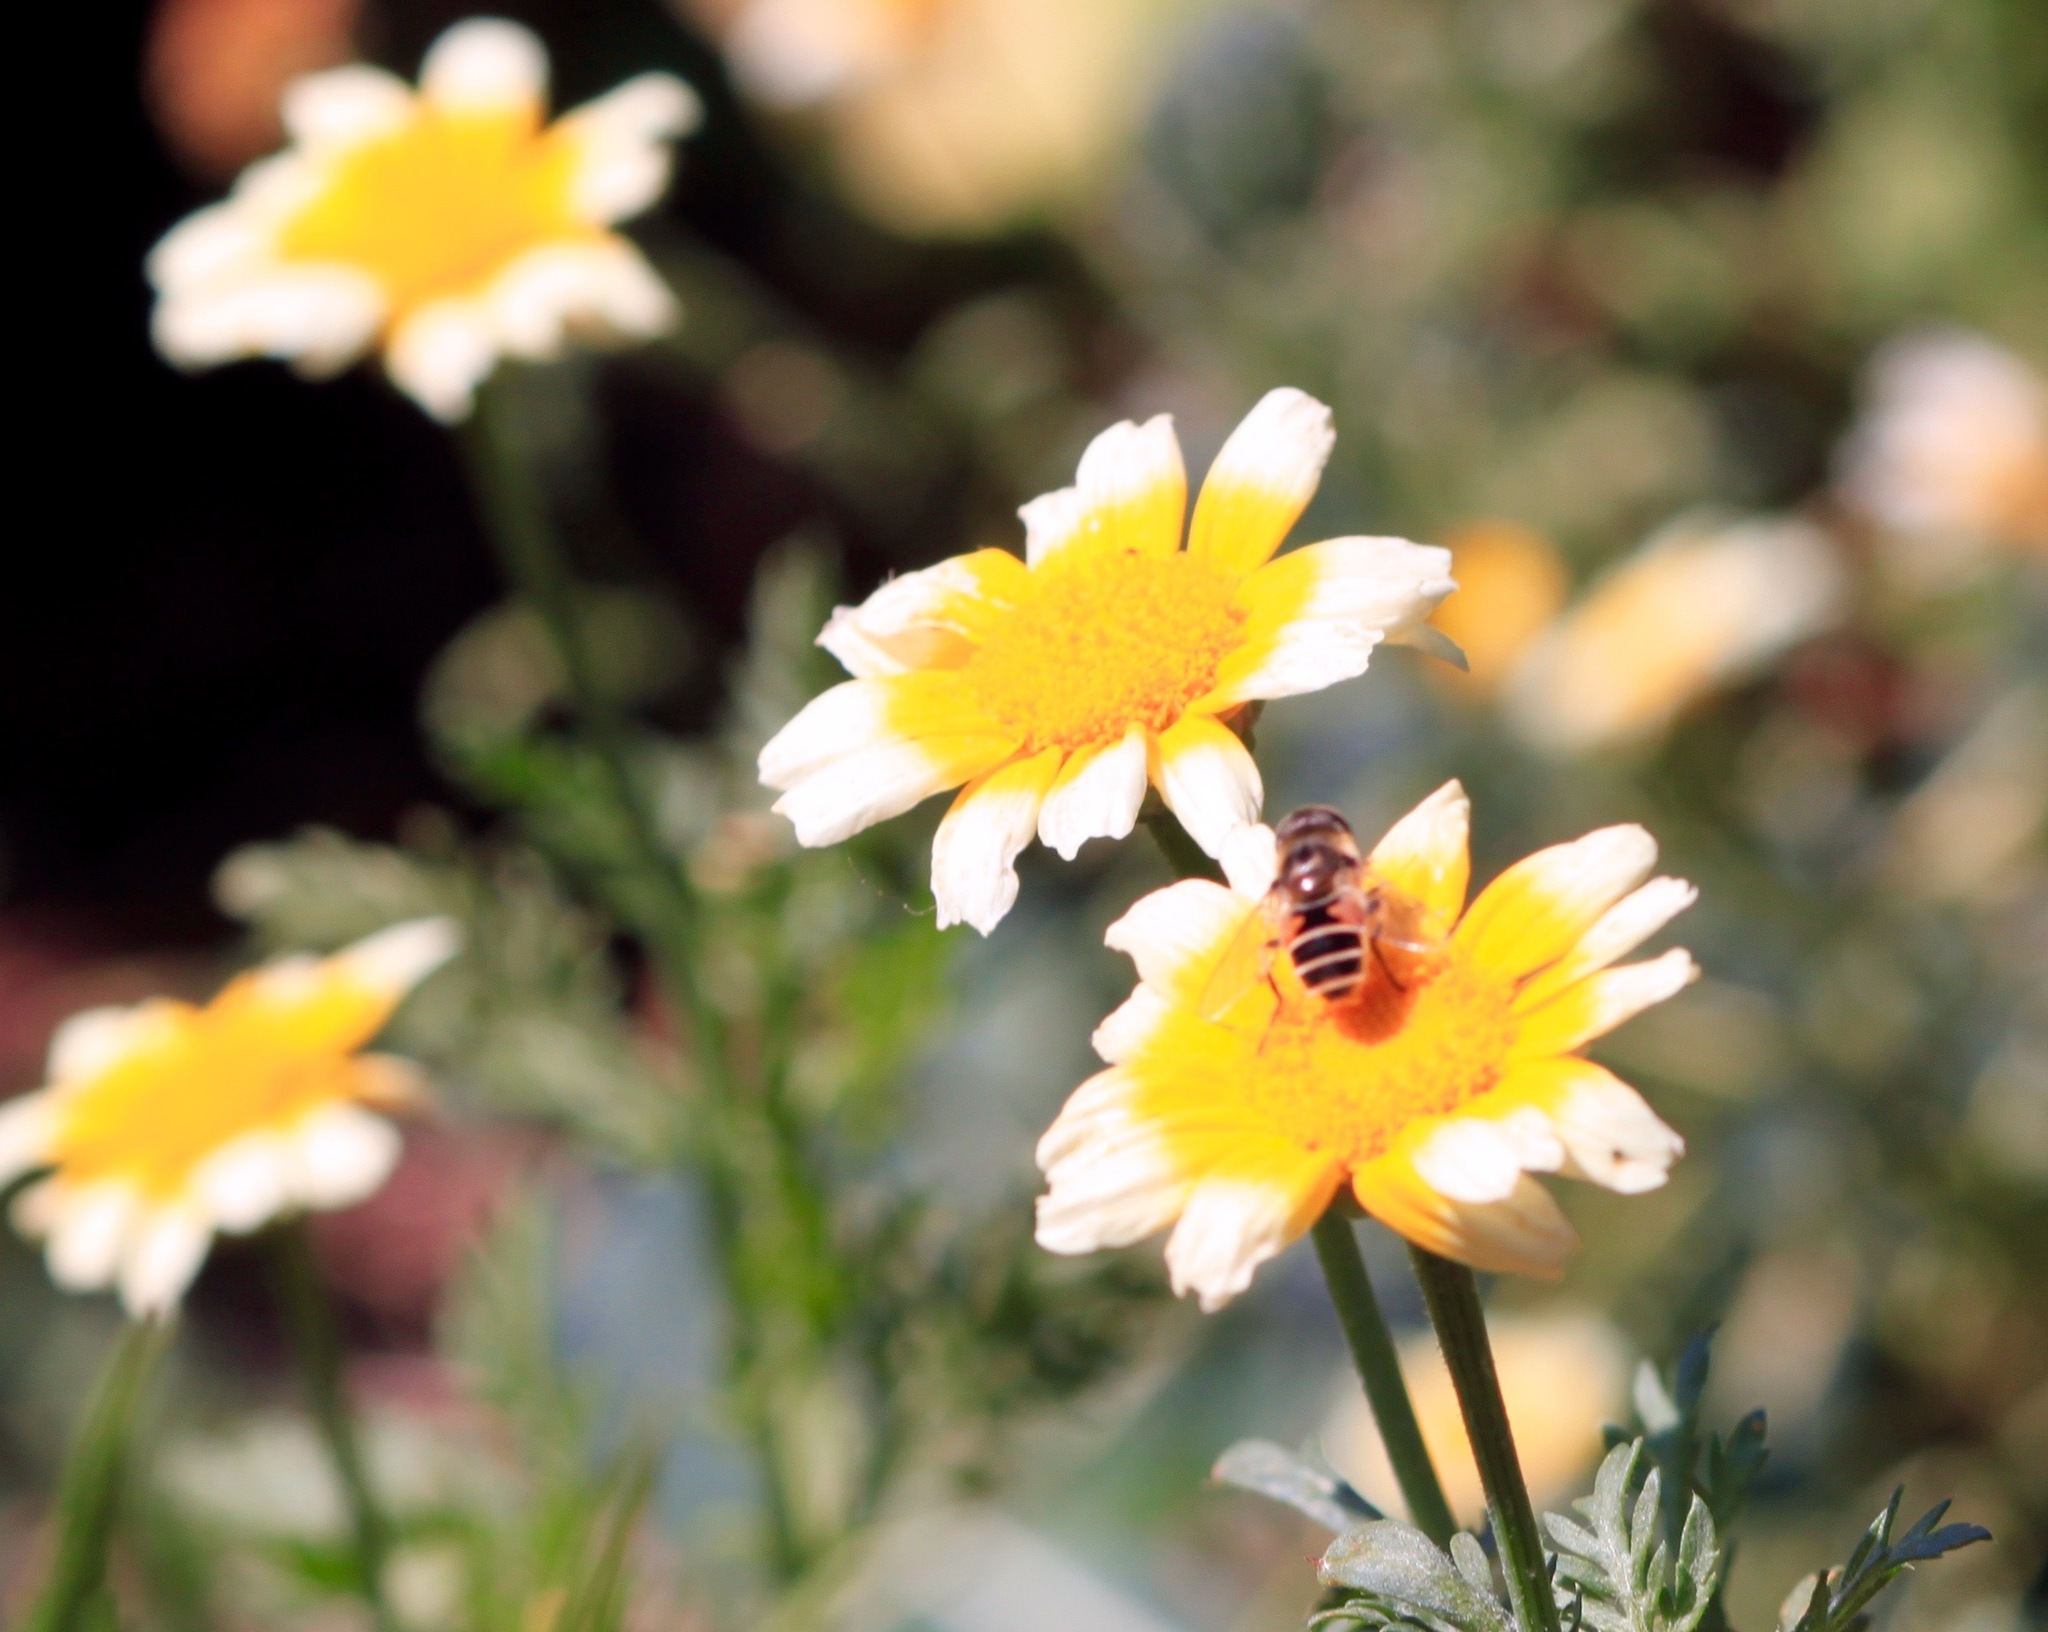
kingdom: Animalia
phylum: Arthropoda
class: Insecta
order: Diptera
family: Syrphidae
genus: Eristalis
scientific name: Eristalis arbustorum
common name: Hover fly
